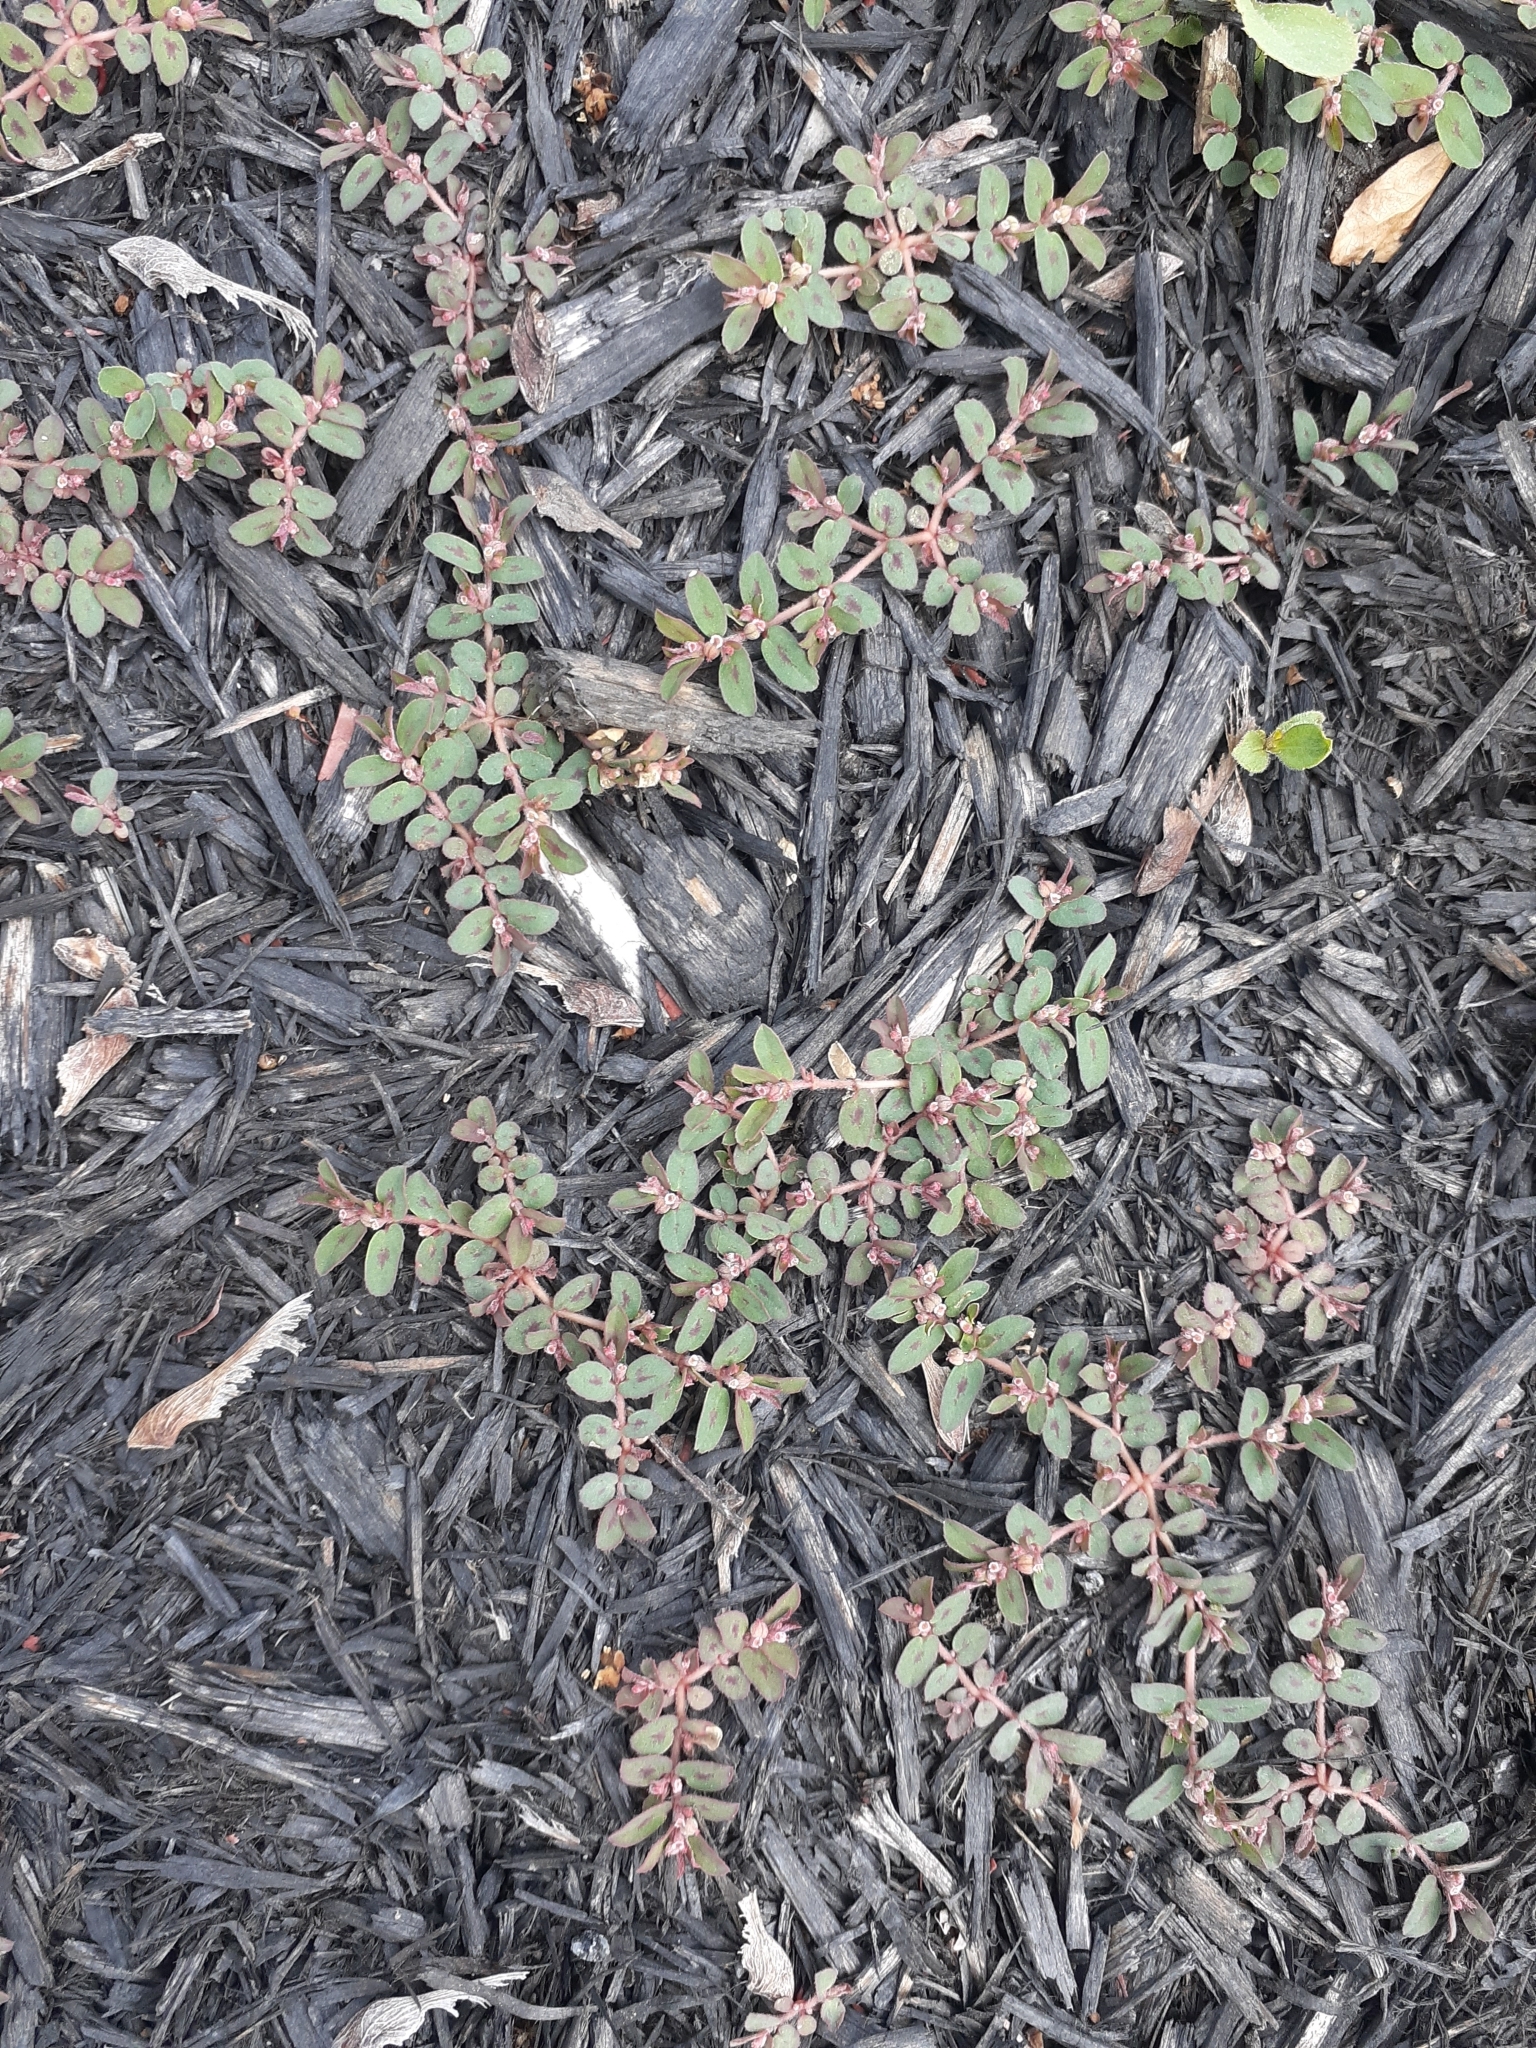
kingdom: Plantae
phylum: Tracheophyta
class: Magnoliopsida
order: Malpighiales
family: Euphorbiaceae
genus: Euphorbia
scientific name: Euphorbia maculata
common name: Spotted spurge
